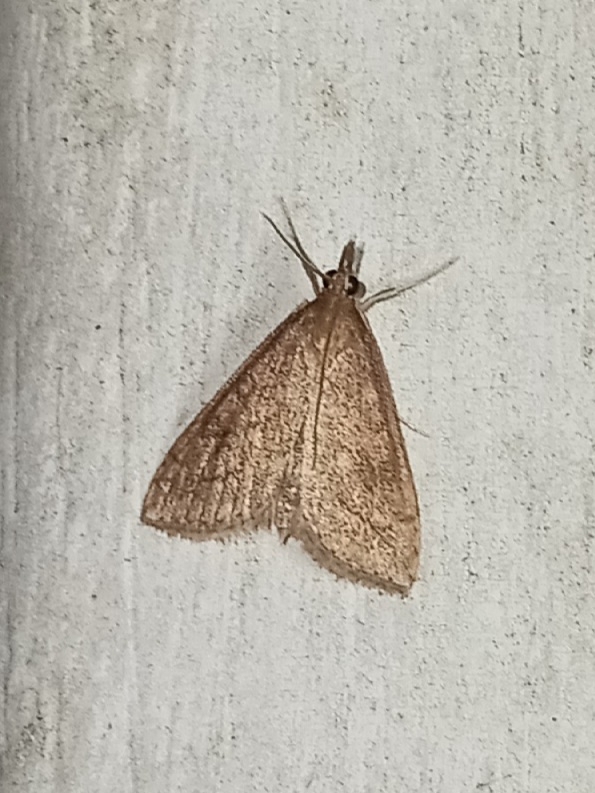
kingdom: Animalia
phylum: Arthropoda
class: Insecta
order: Lepidoptera
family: Crambidae
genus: Udea
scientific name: Udea rubigalis
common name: Celery leaftier moth
